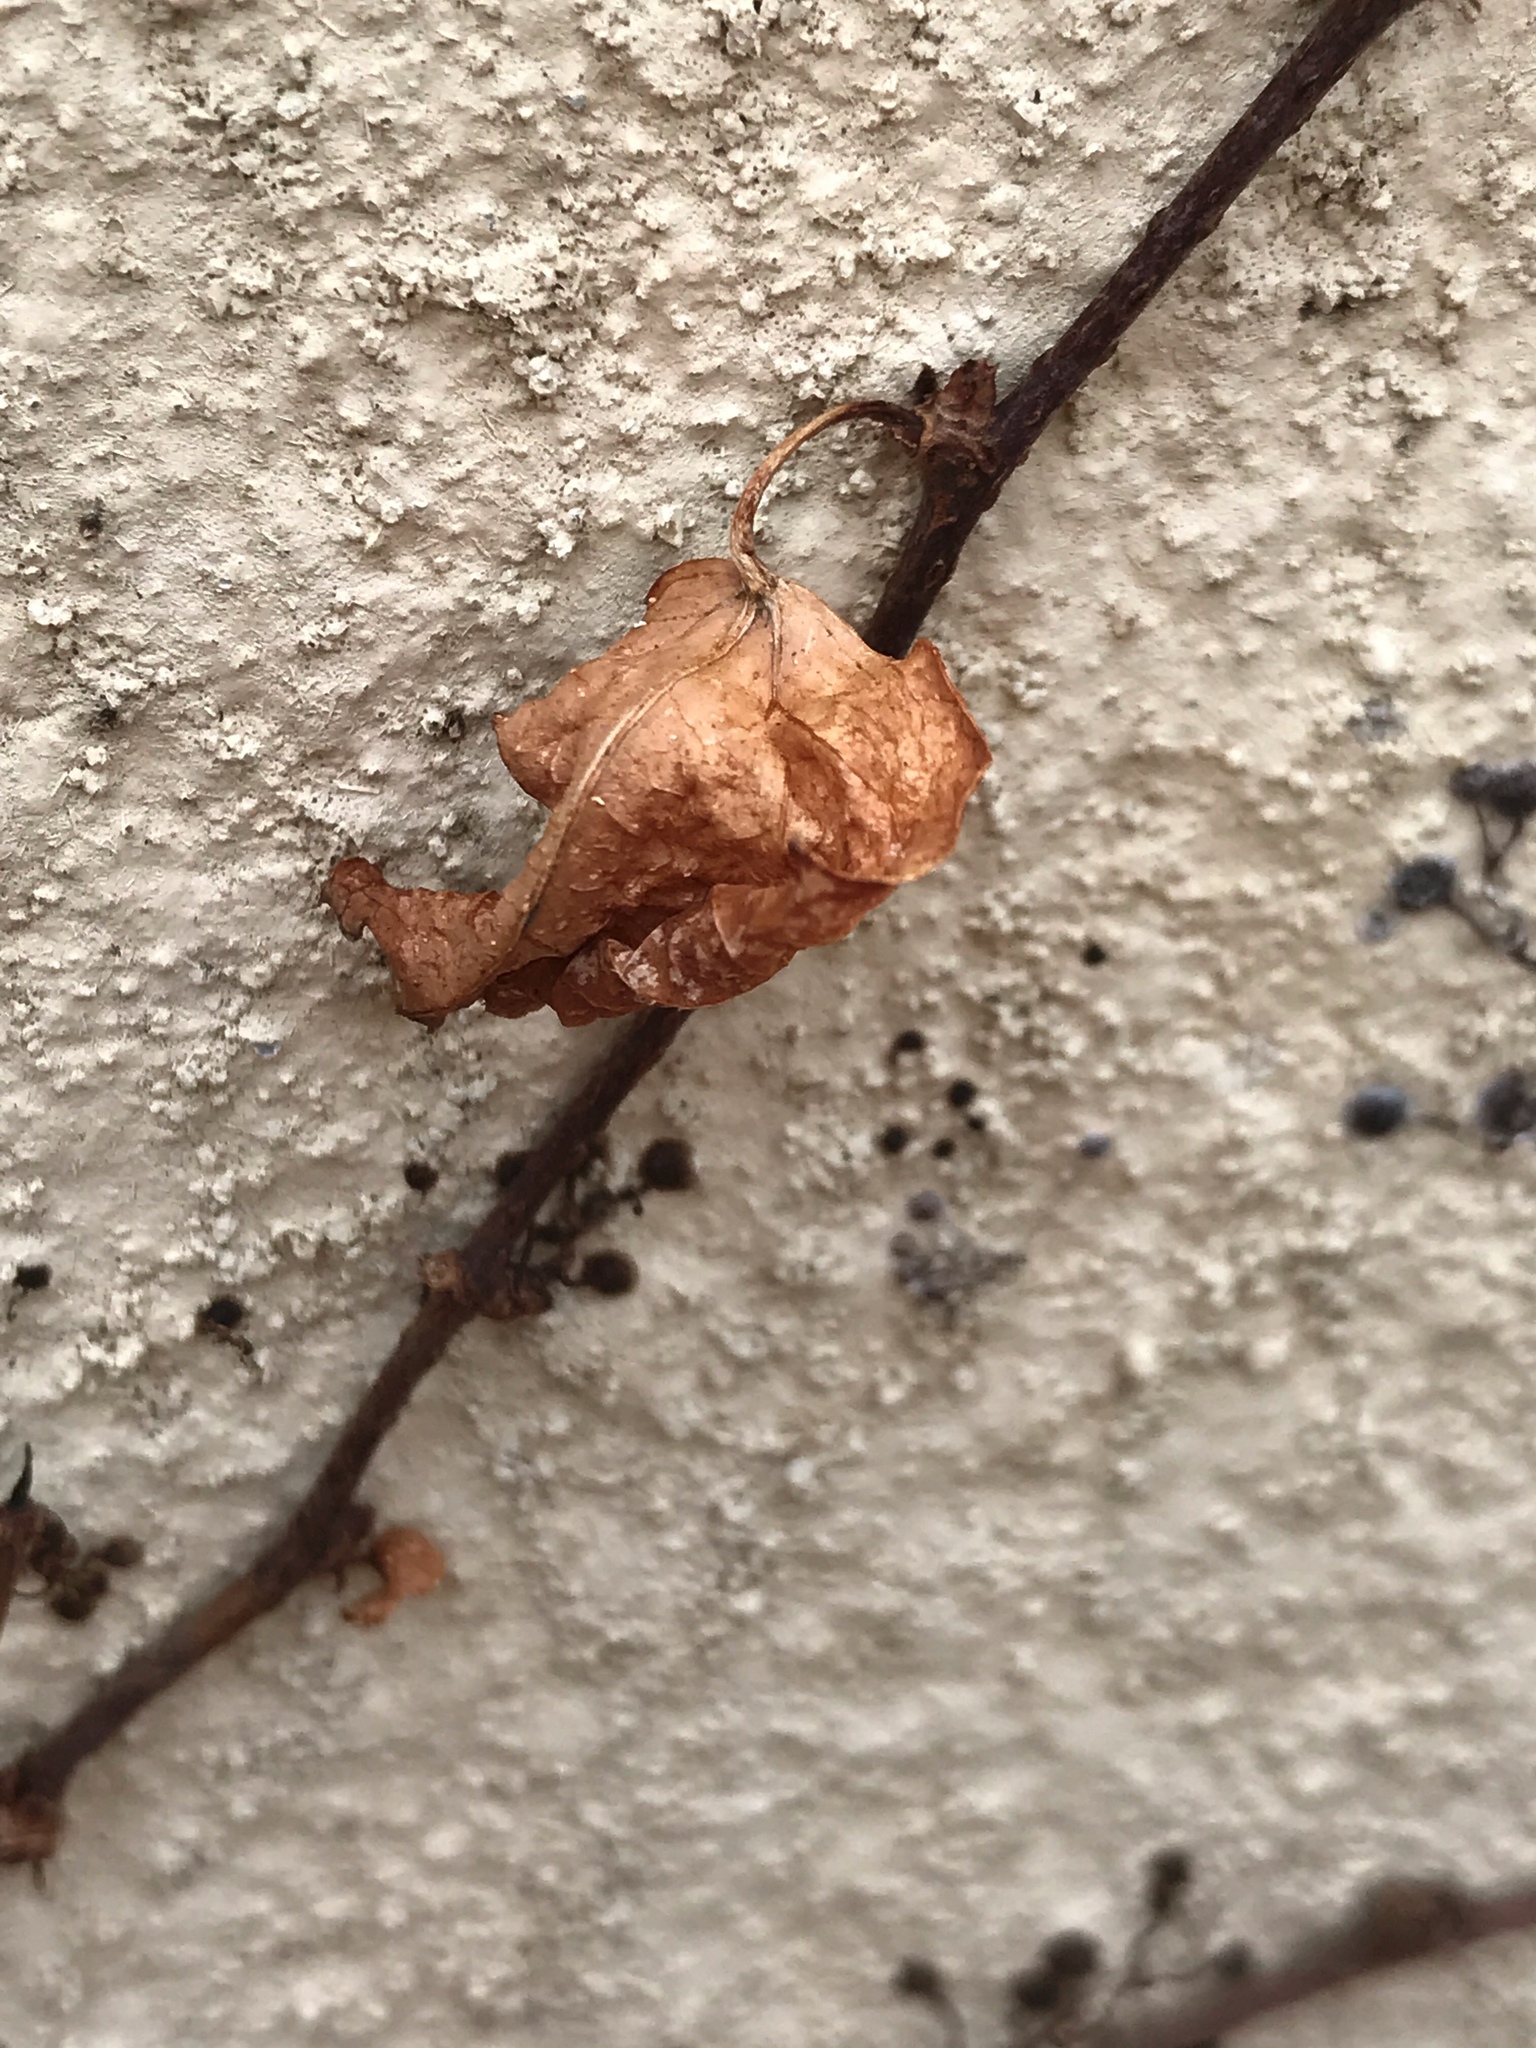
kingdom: Plantae
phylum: Tracheophyta
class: Magnoliopsida
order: Vitales
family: Vitaceae
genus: Parthenocissus
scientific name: Parthenocissus tricuspidata
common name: Boston ivy
